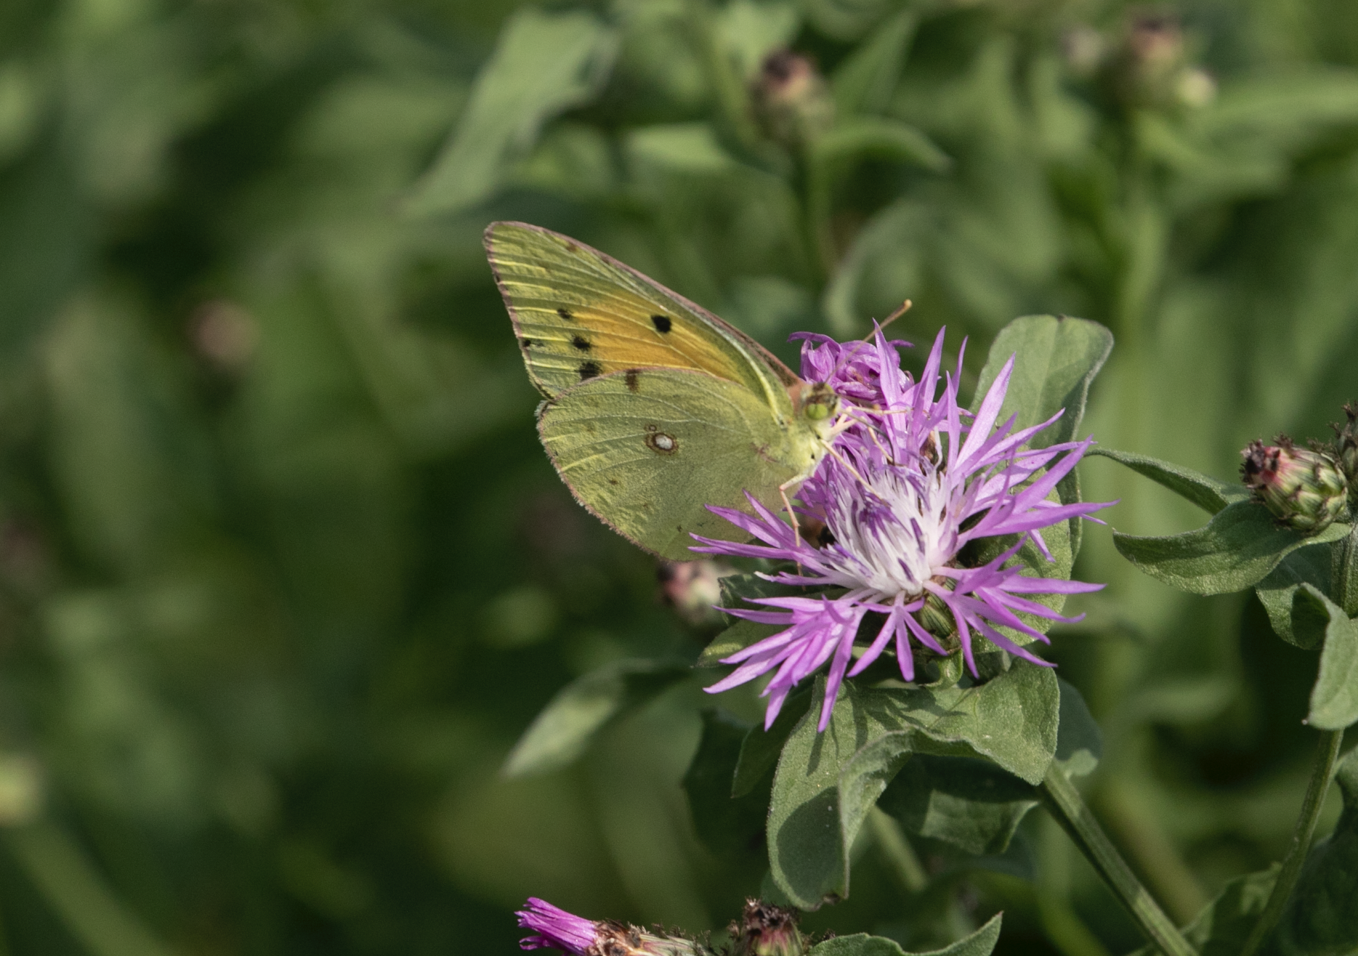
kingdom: Animalia
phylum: Arthropoda
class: Insecta
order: Lepidoptera
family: Pieridae
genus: Colias
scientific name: Colias croceus
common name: Clouded yellow
